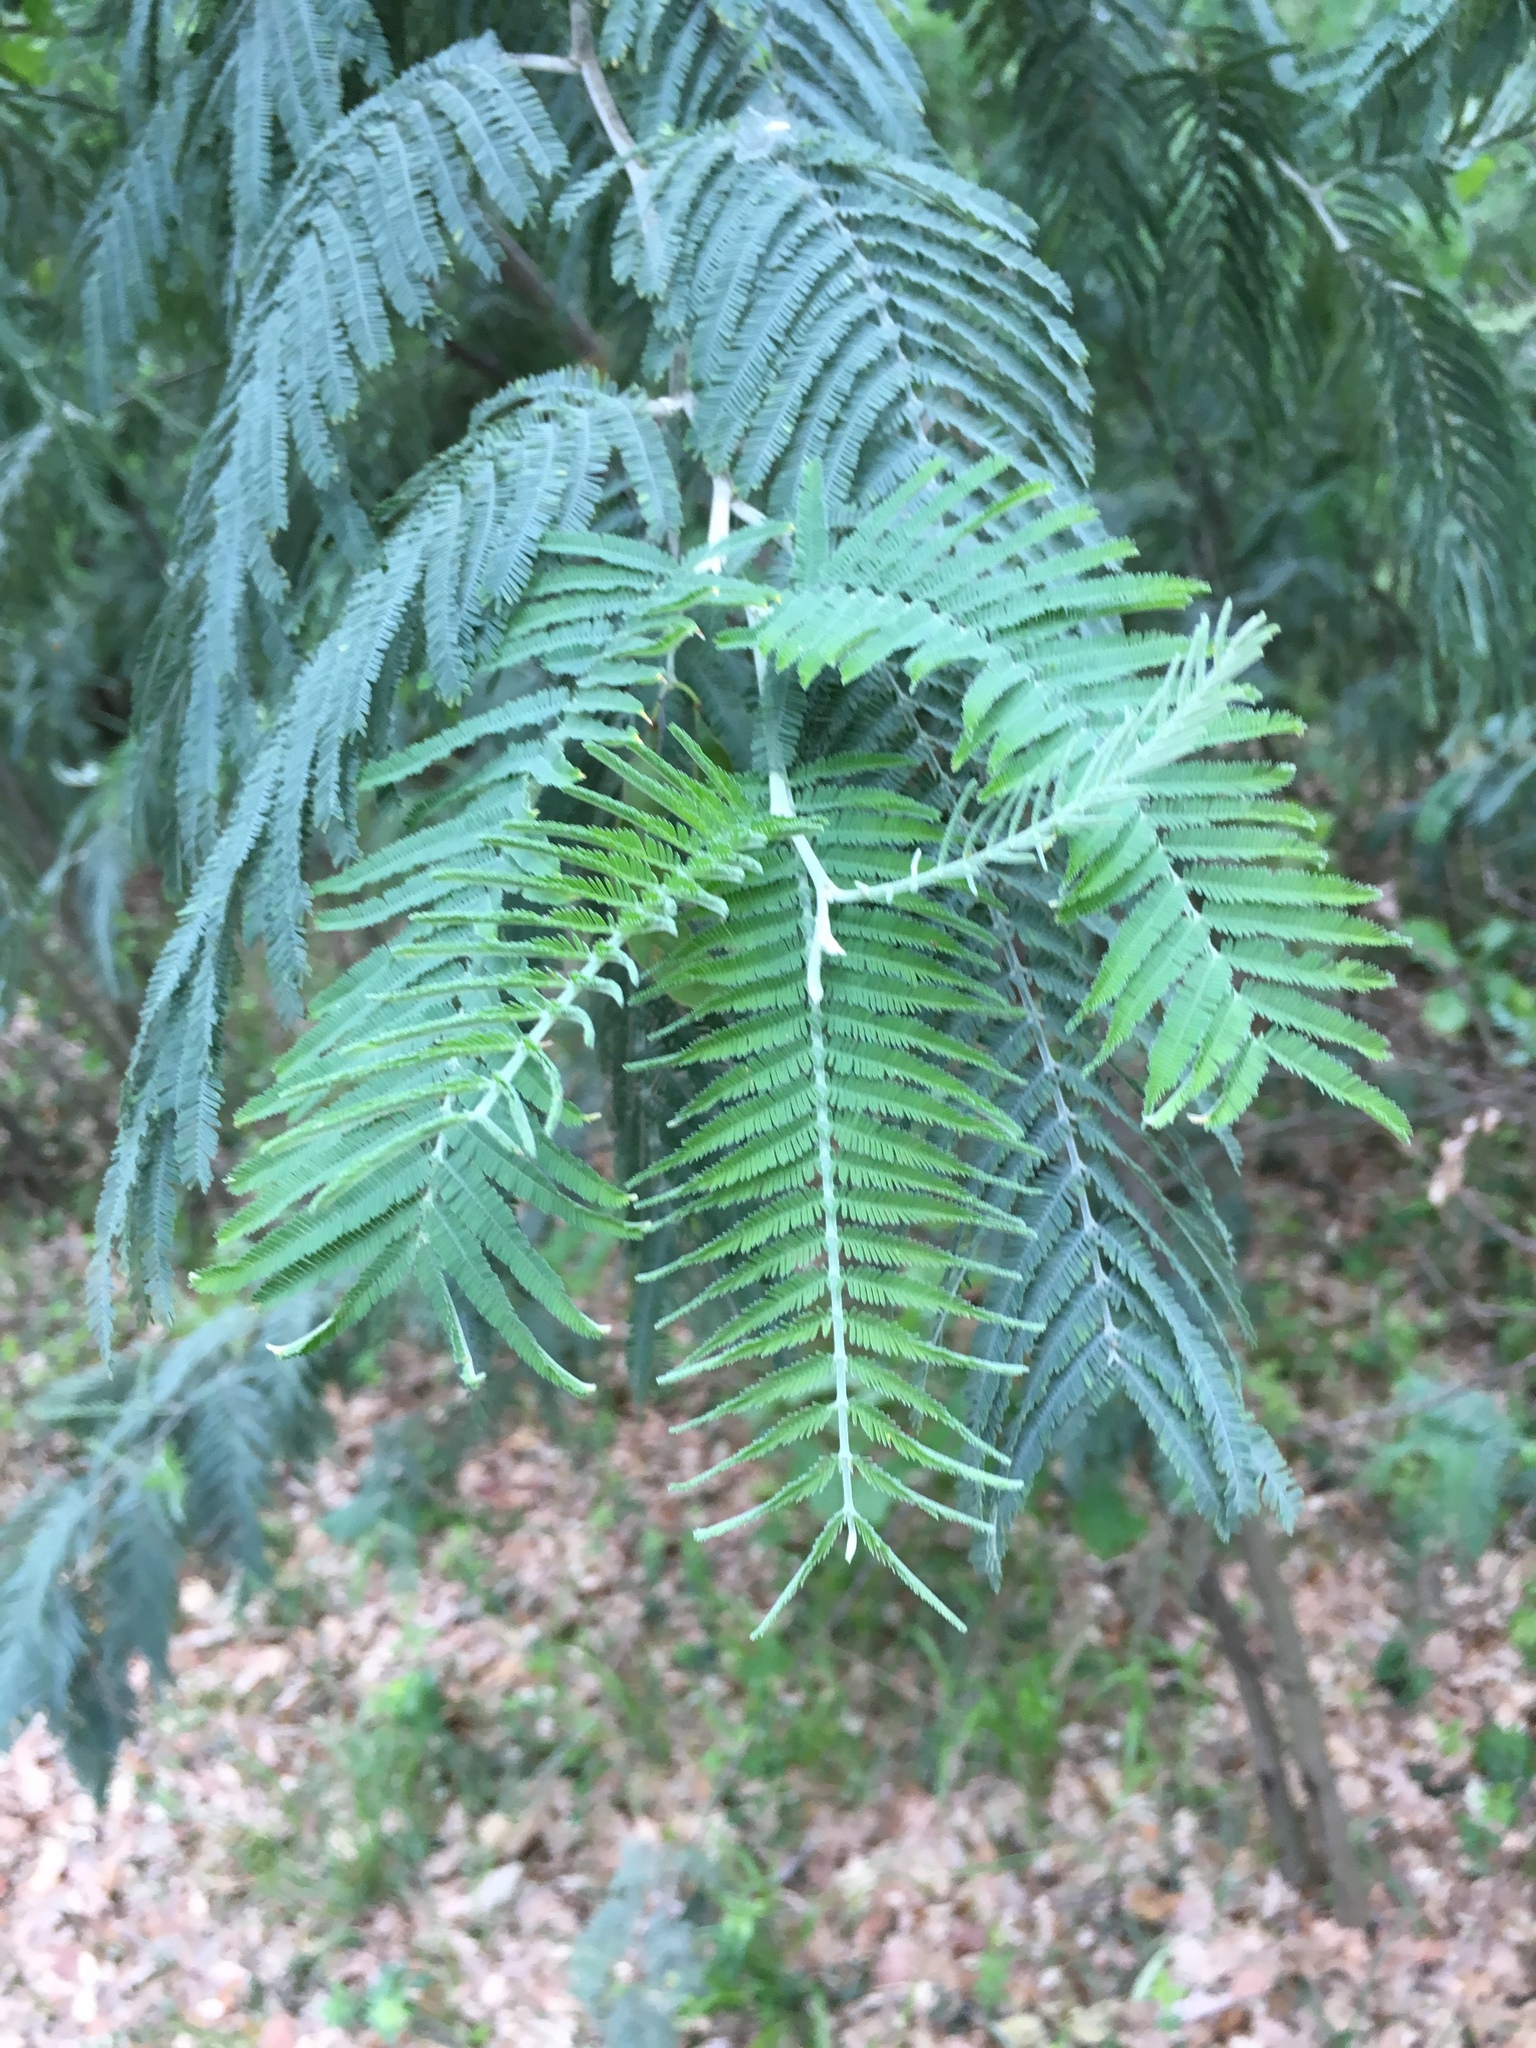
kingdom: Plantae
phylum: Tracheophyta
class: Magnoliopsida
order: Fabales
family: Fabaceae
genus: Acacia
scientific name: Acacia dealbata
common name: Silver wattle
